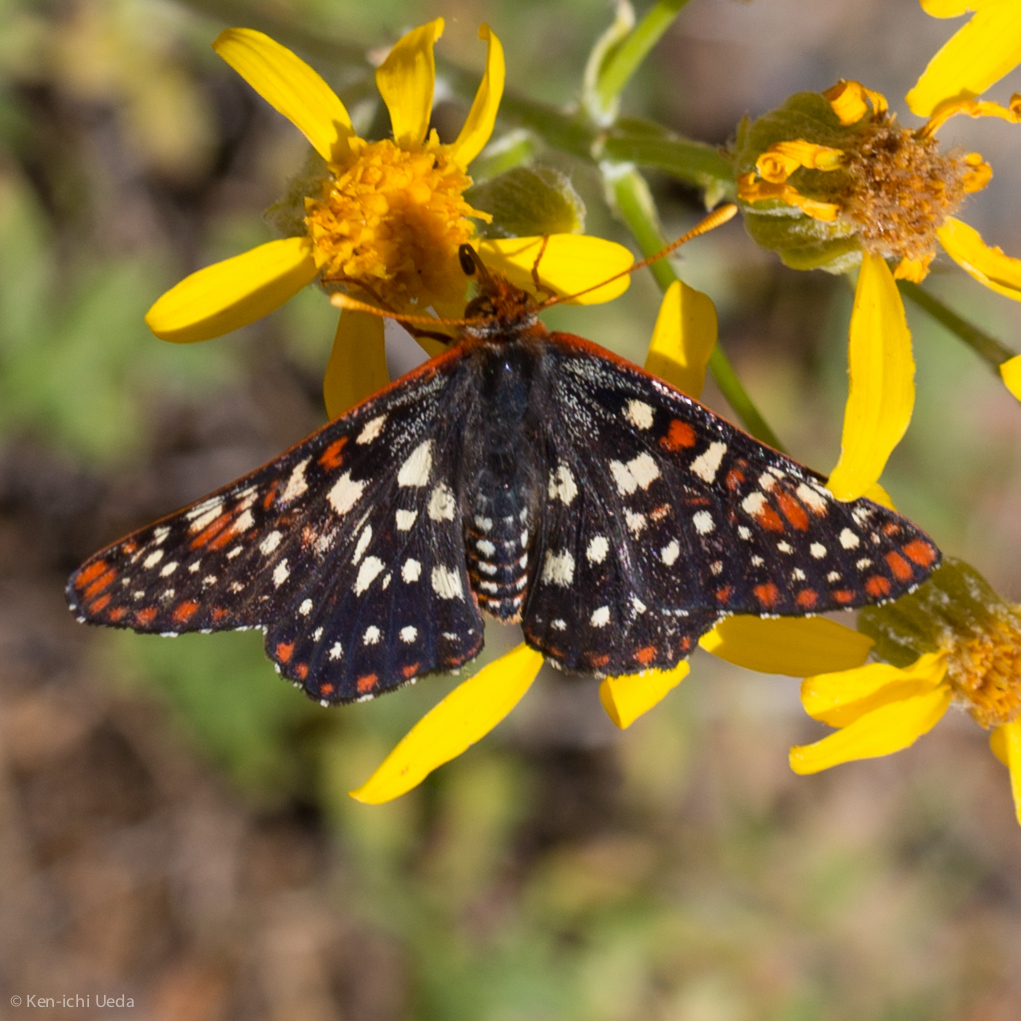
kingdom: Animalia
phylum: Arthropoda
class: Insecta
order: Lepidoptera
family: Nymphalidae
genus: Occidryas
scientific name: Occidryas chalcedona
